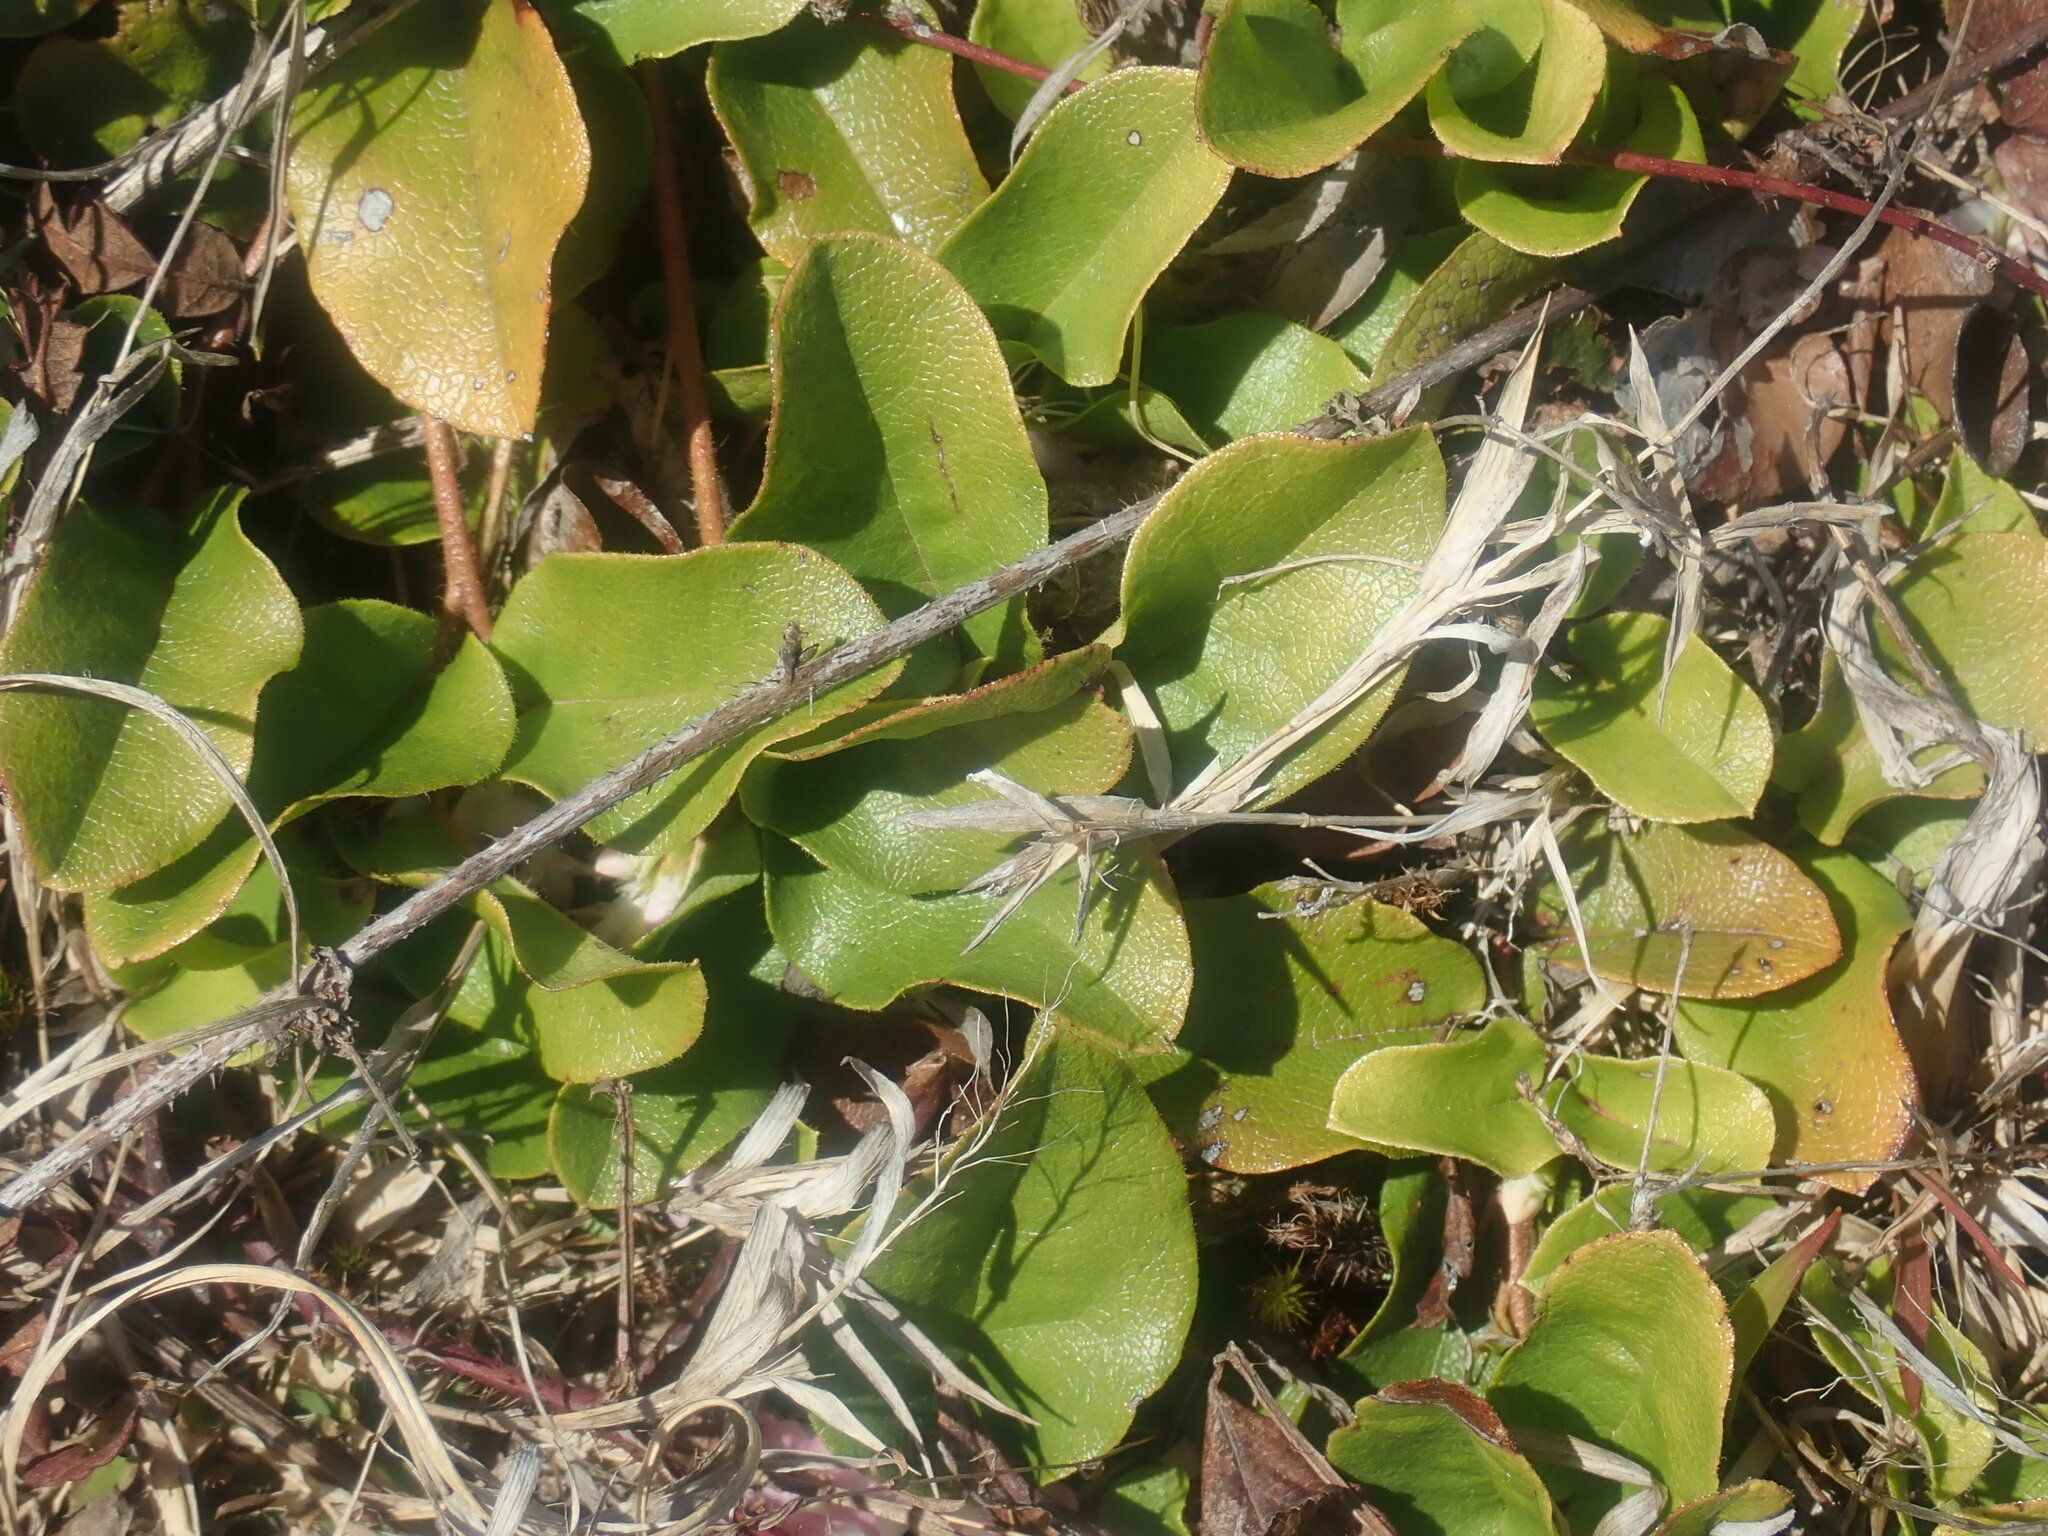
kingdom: Plantae
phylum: Tracheophyta
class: Magnoliopsida
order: Ericales
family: Ericaceae
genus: Epigaea
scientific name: Epigaea repens
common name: Gravelroot
